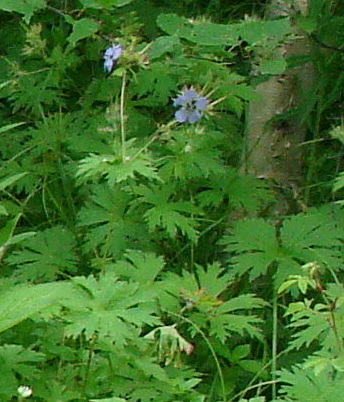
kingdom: Plantae
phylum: Tracheophyta
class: Magnoliopsida
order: Geraniales
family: Geraniaceae
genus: Geranium
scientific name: Geranium erianthum
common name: Northern crane's-bill
